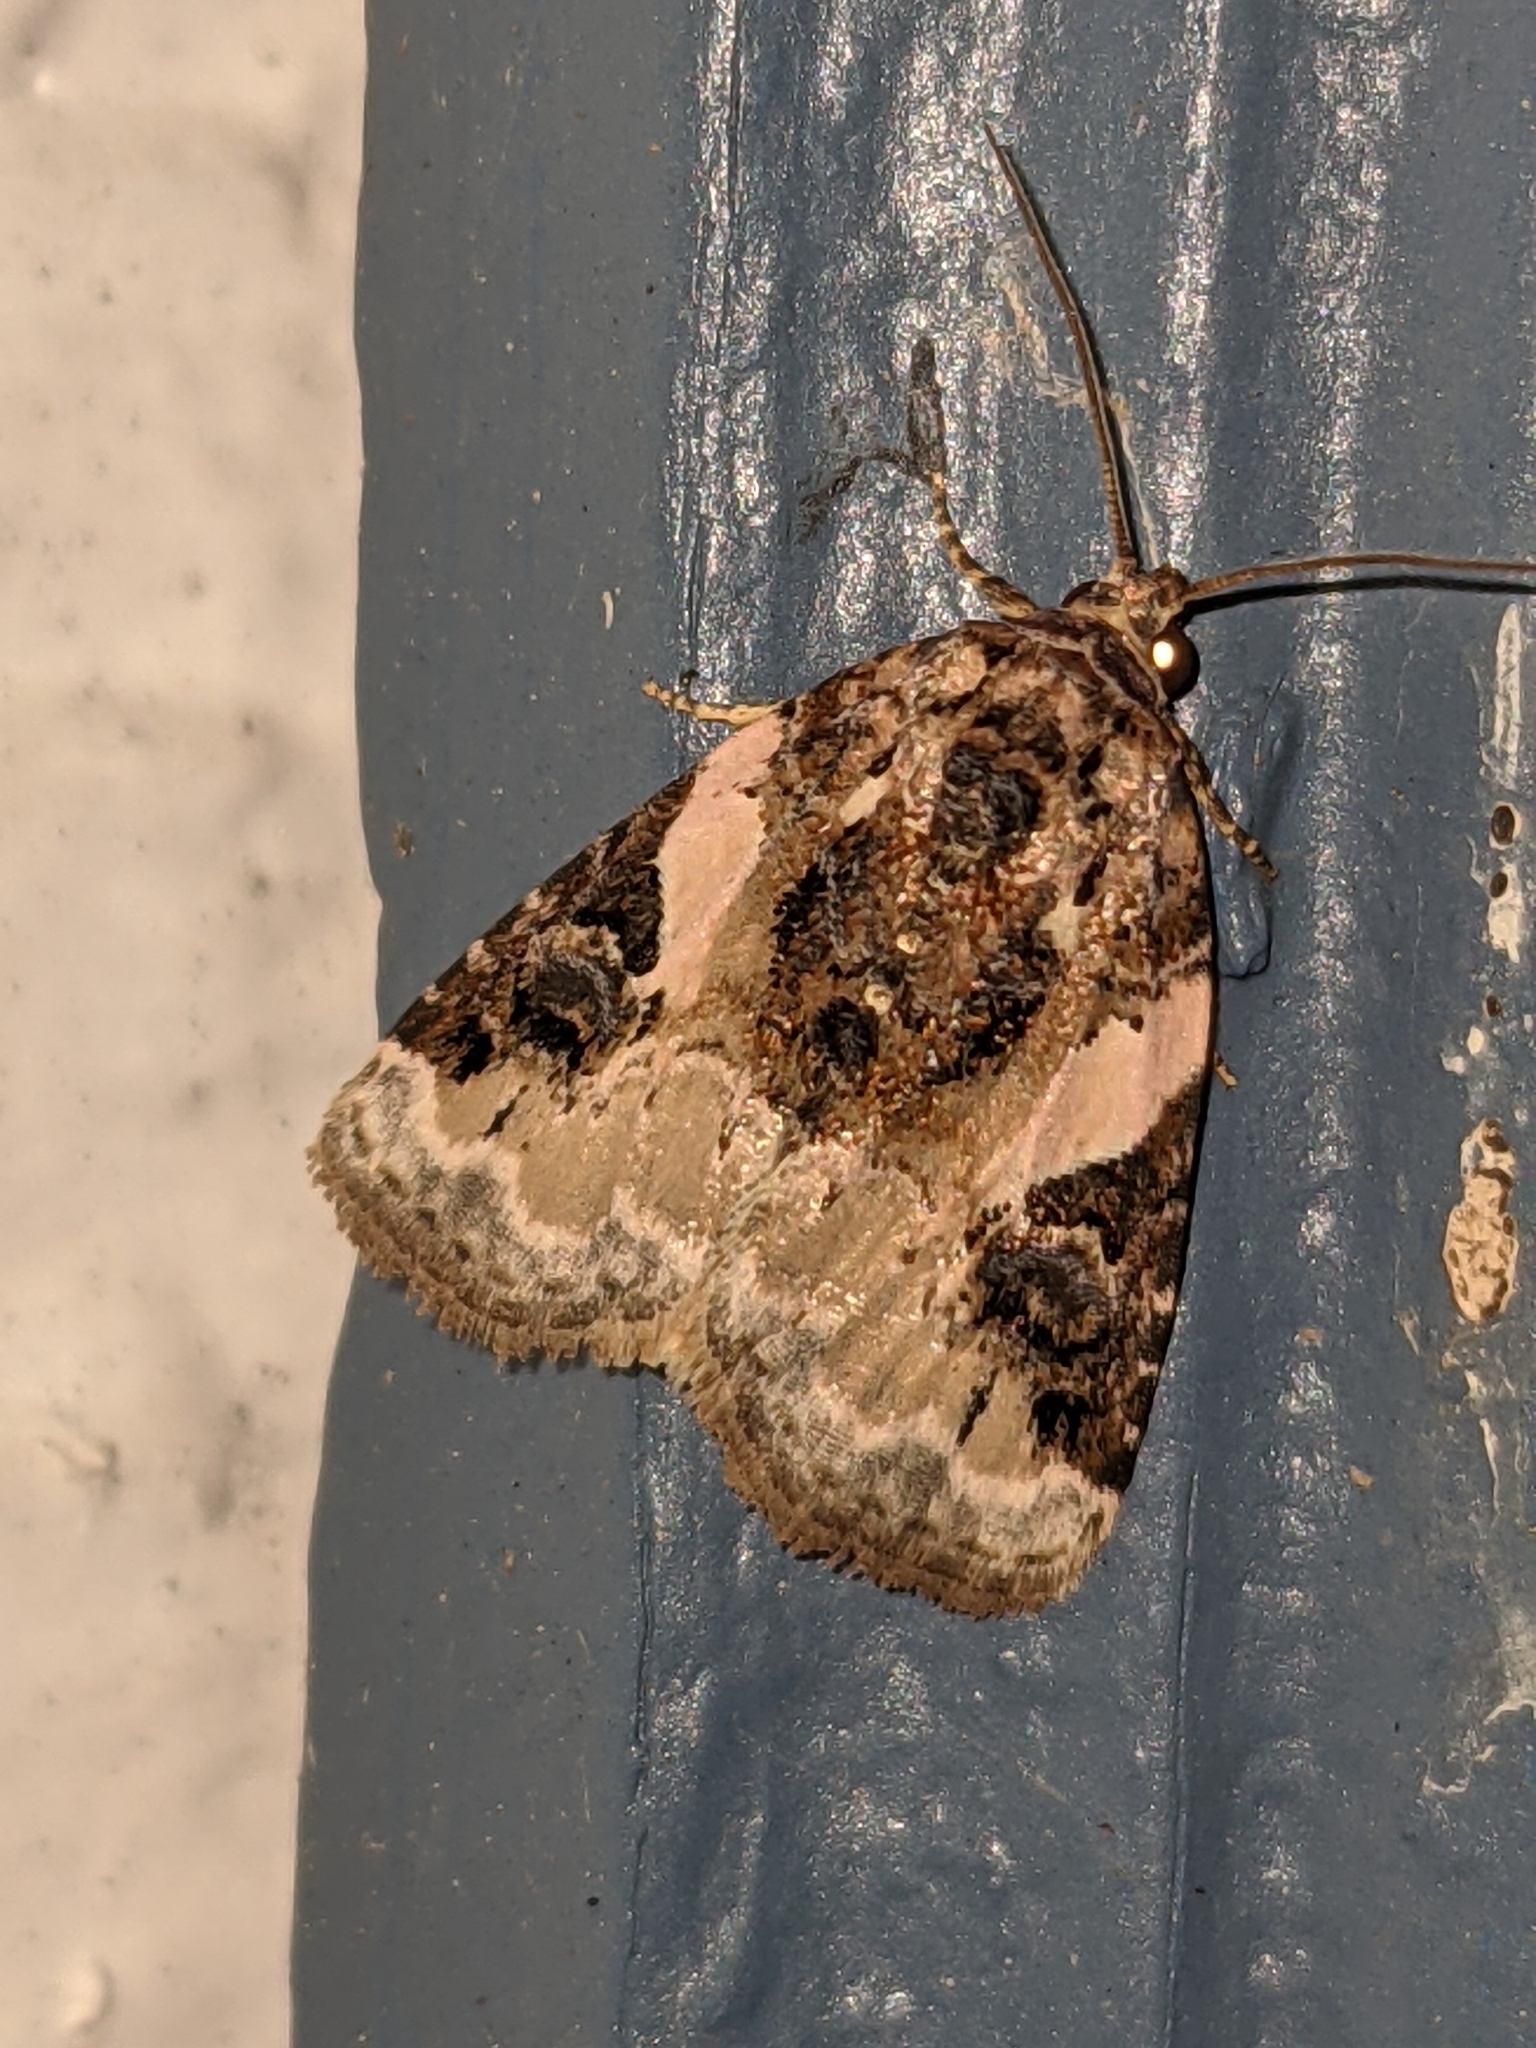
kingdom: Animalia
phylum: Arthropoda
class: Insecta
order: Lepidoptera
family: Noctuidae
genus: Pseudeustrotia
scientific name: Pseudeustrotia carneola
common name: Pink-barred lithacodia moth
